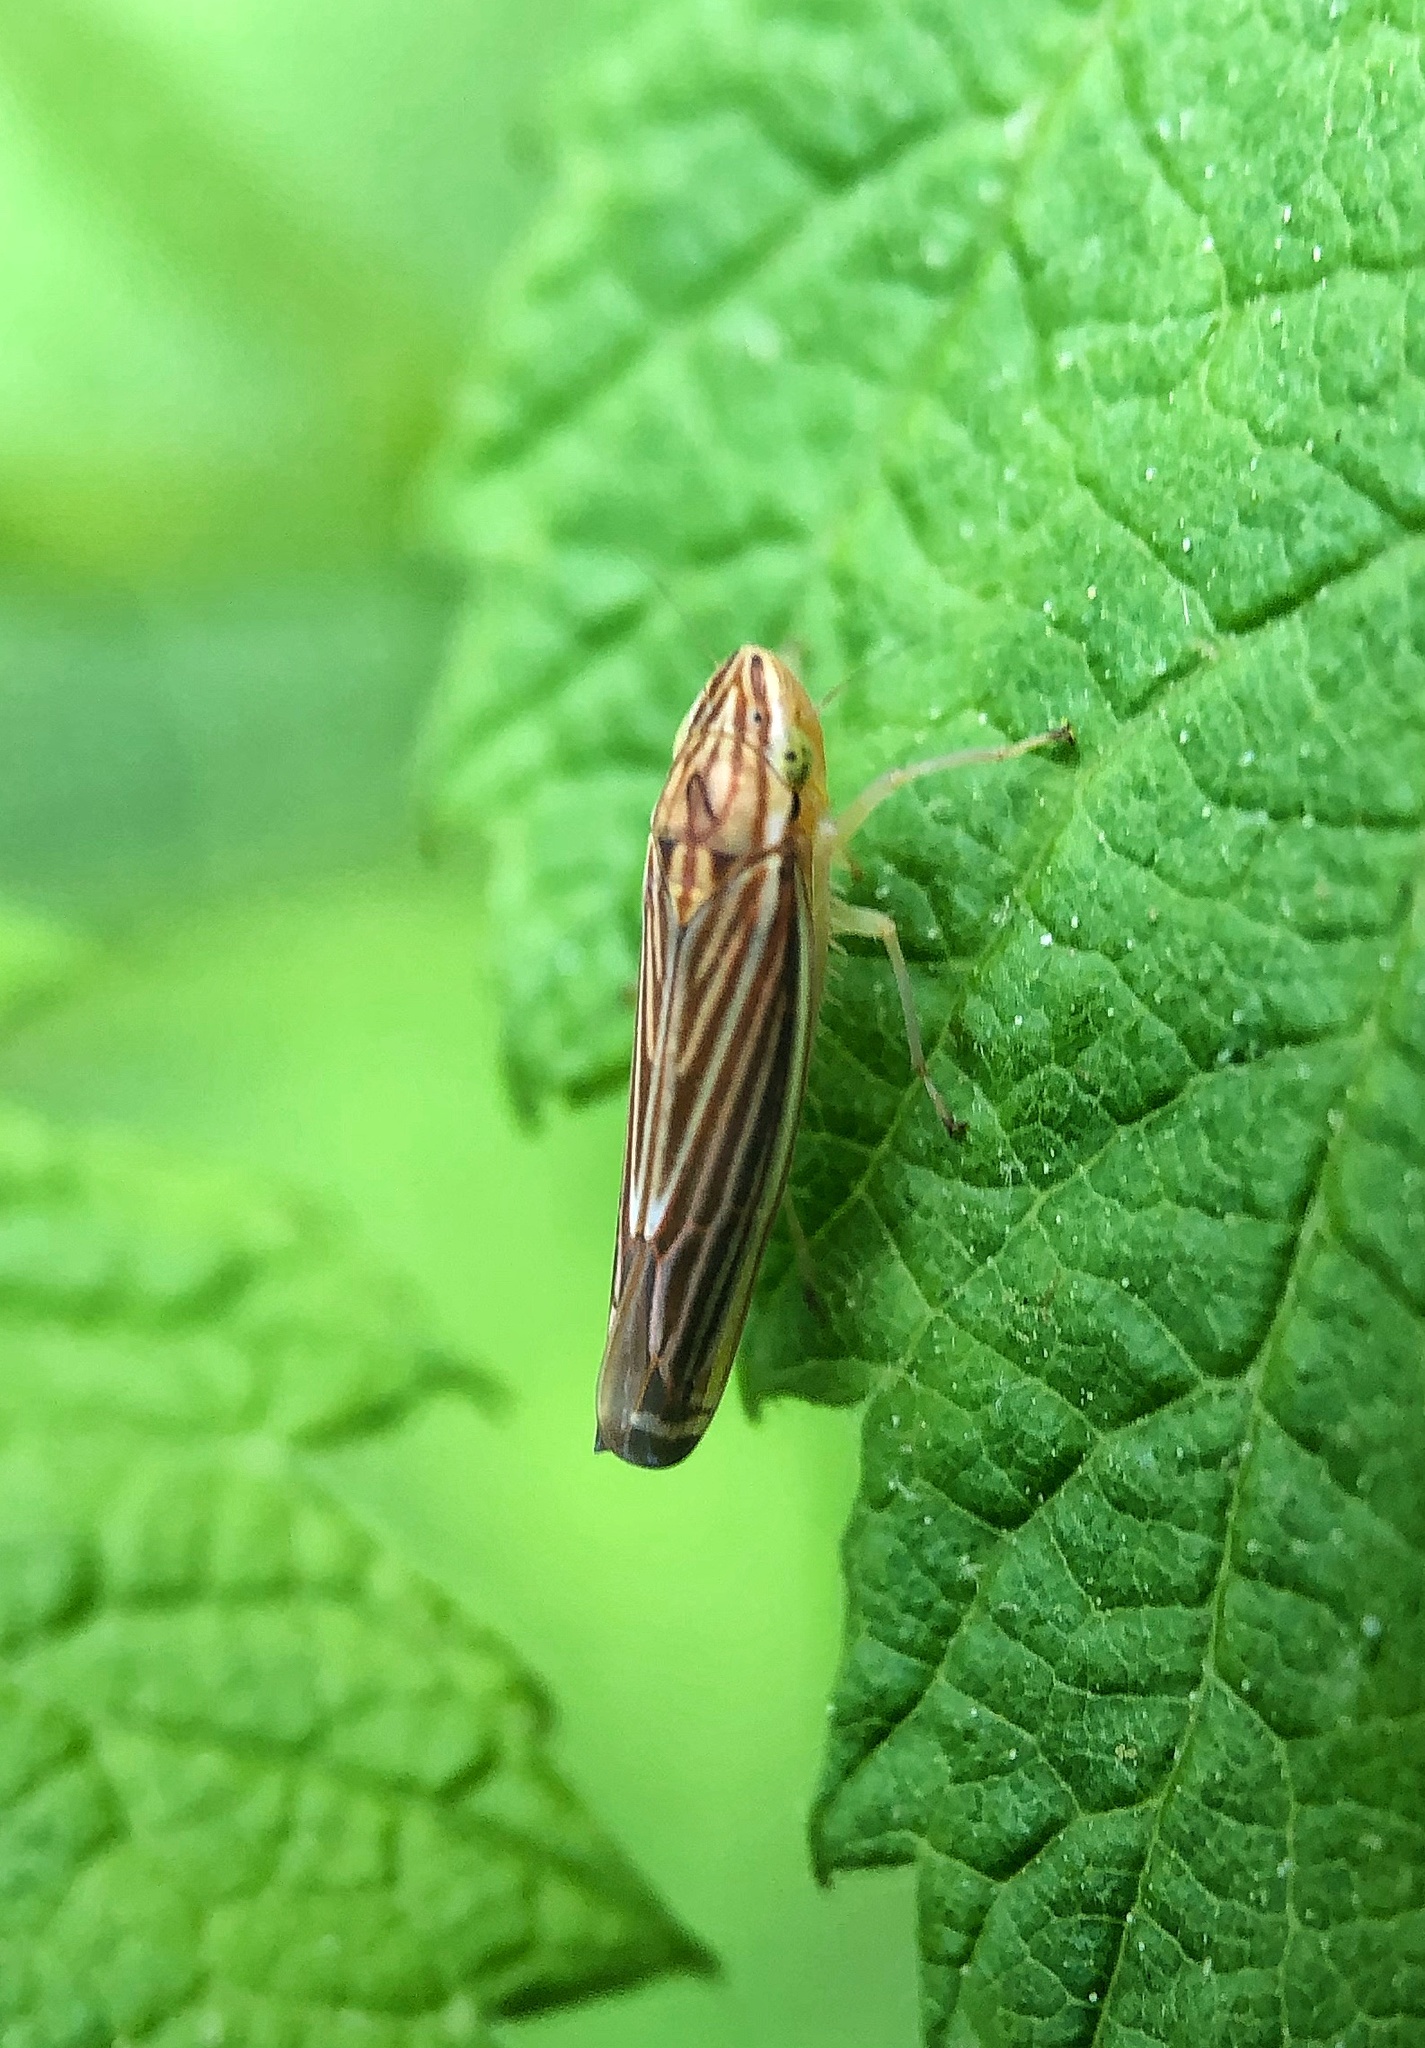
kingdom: Animalia
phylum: Arthropoda
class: Insecta
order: Hemiptera
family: Cicadellidae
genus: Sibovia
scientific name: Sibovia occatoria
